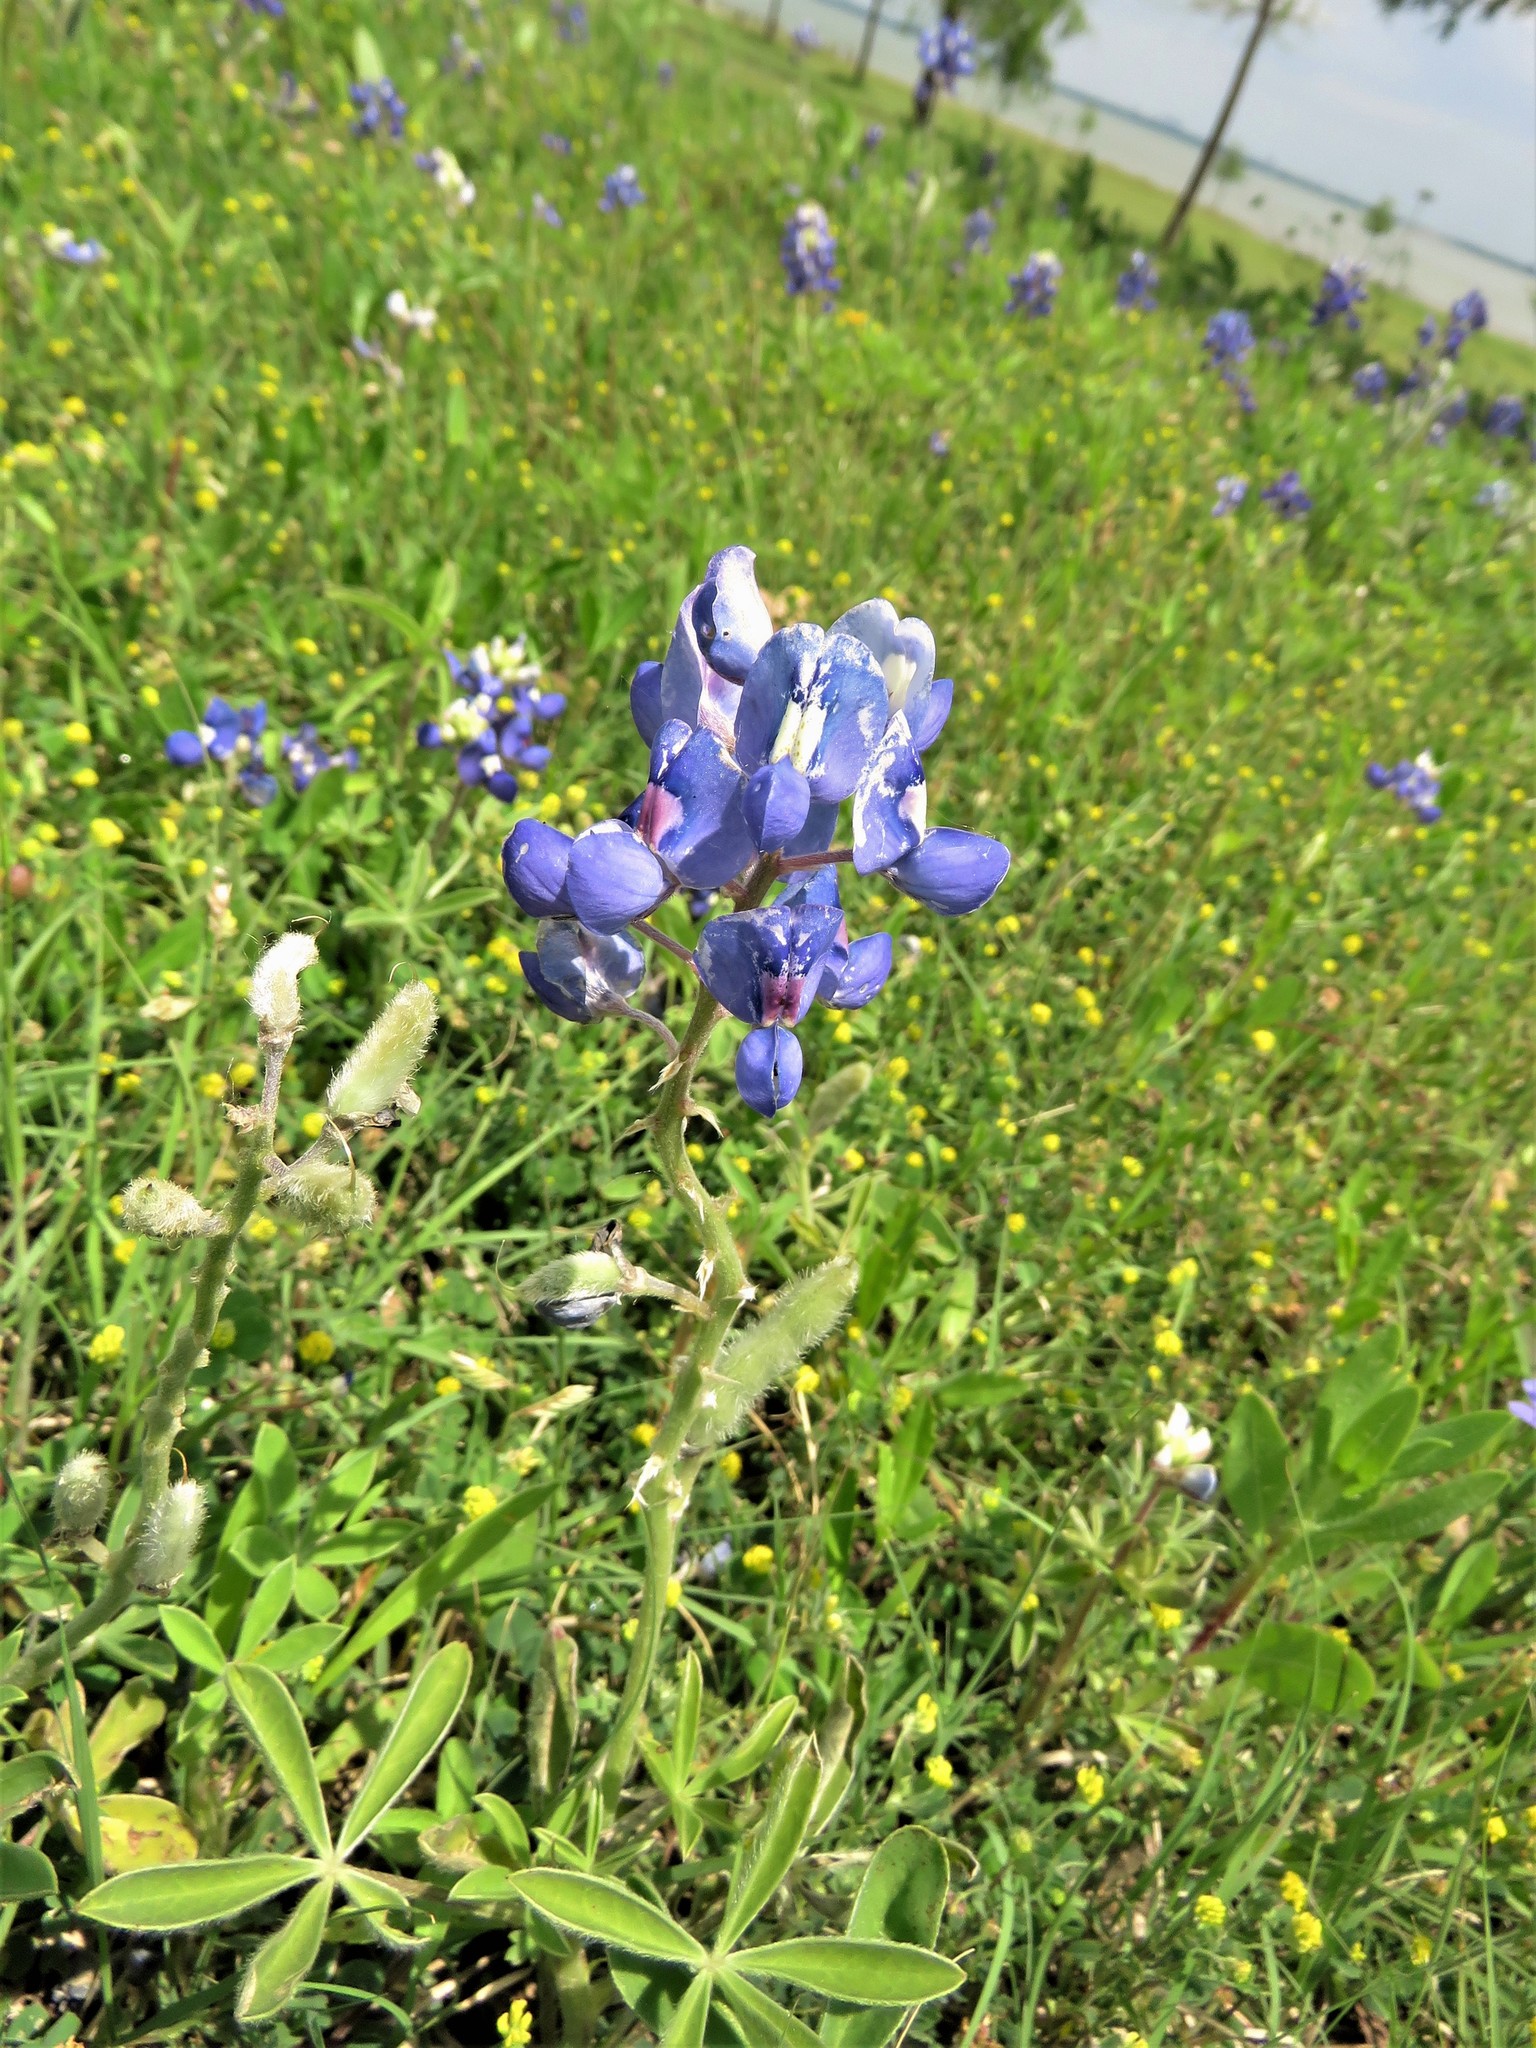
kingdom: Plantae
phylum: Tracheophyta
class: Magnoliopsida
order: Fabales
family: Fabaceae
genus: Lupinus
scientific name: Lupinus texensis
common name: Texas bluebonnet
